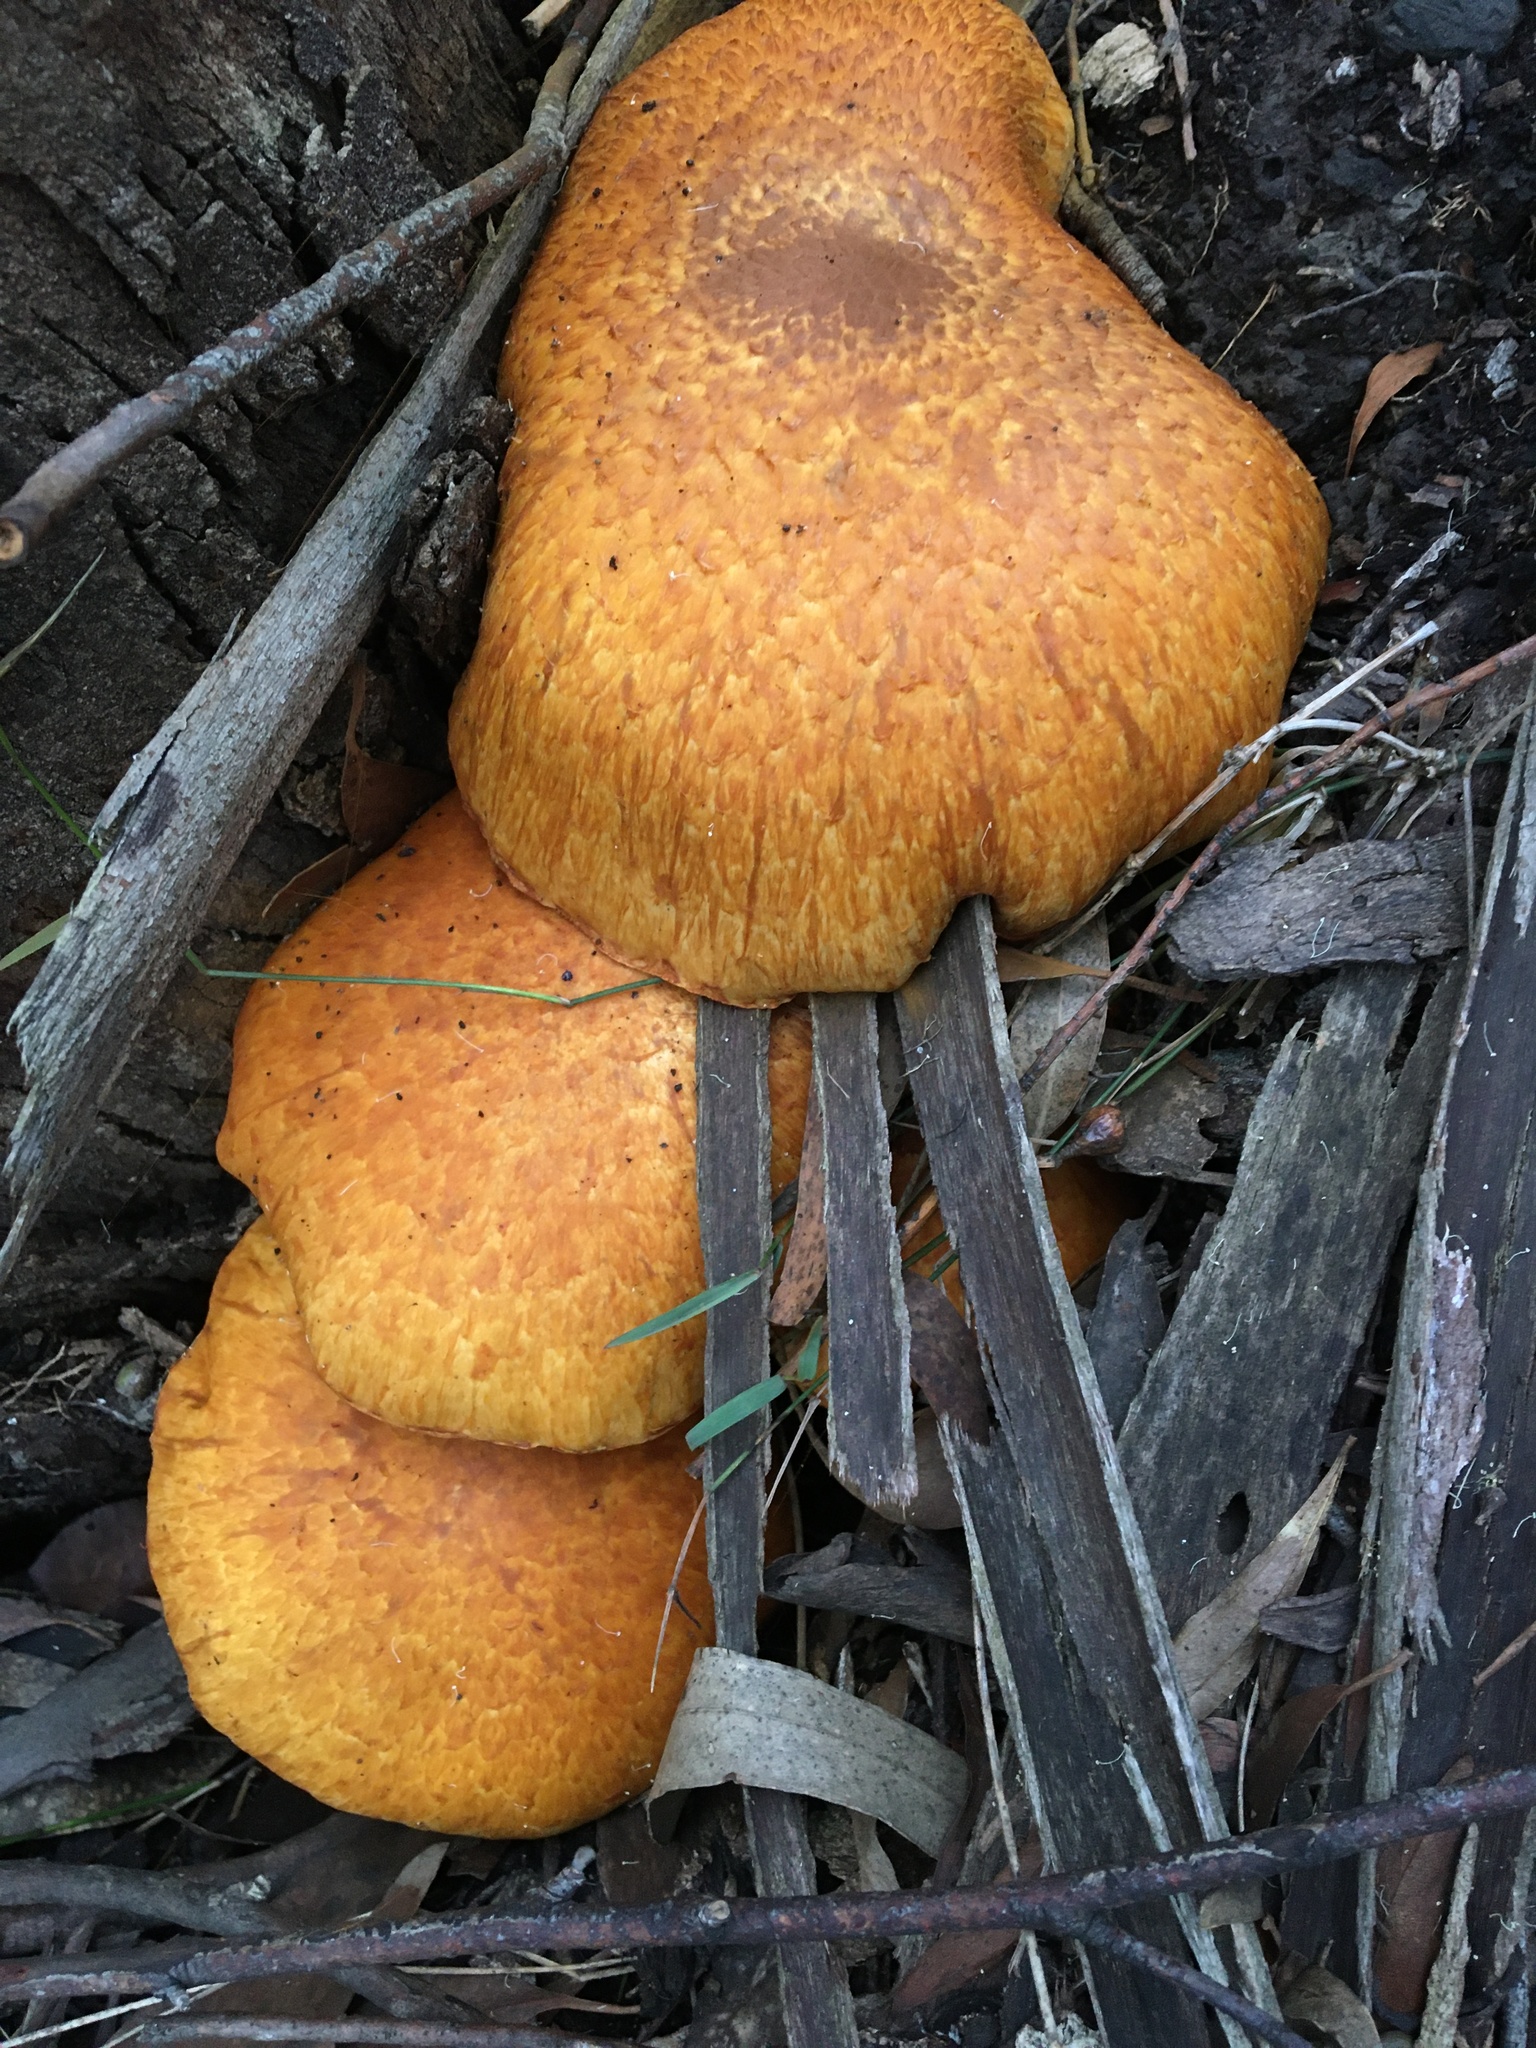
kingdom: Fungi
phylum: Basidiomycota
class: Agaricomycetes
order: Agaricales
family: Hymenogastraceae
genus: Gymnopilus
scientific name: Gymnopilus junonius
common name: Spectacular rustgill
